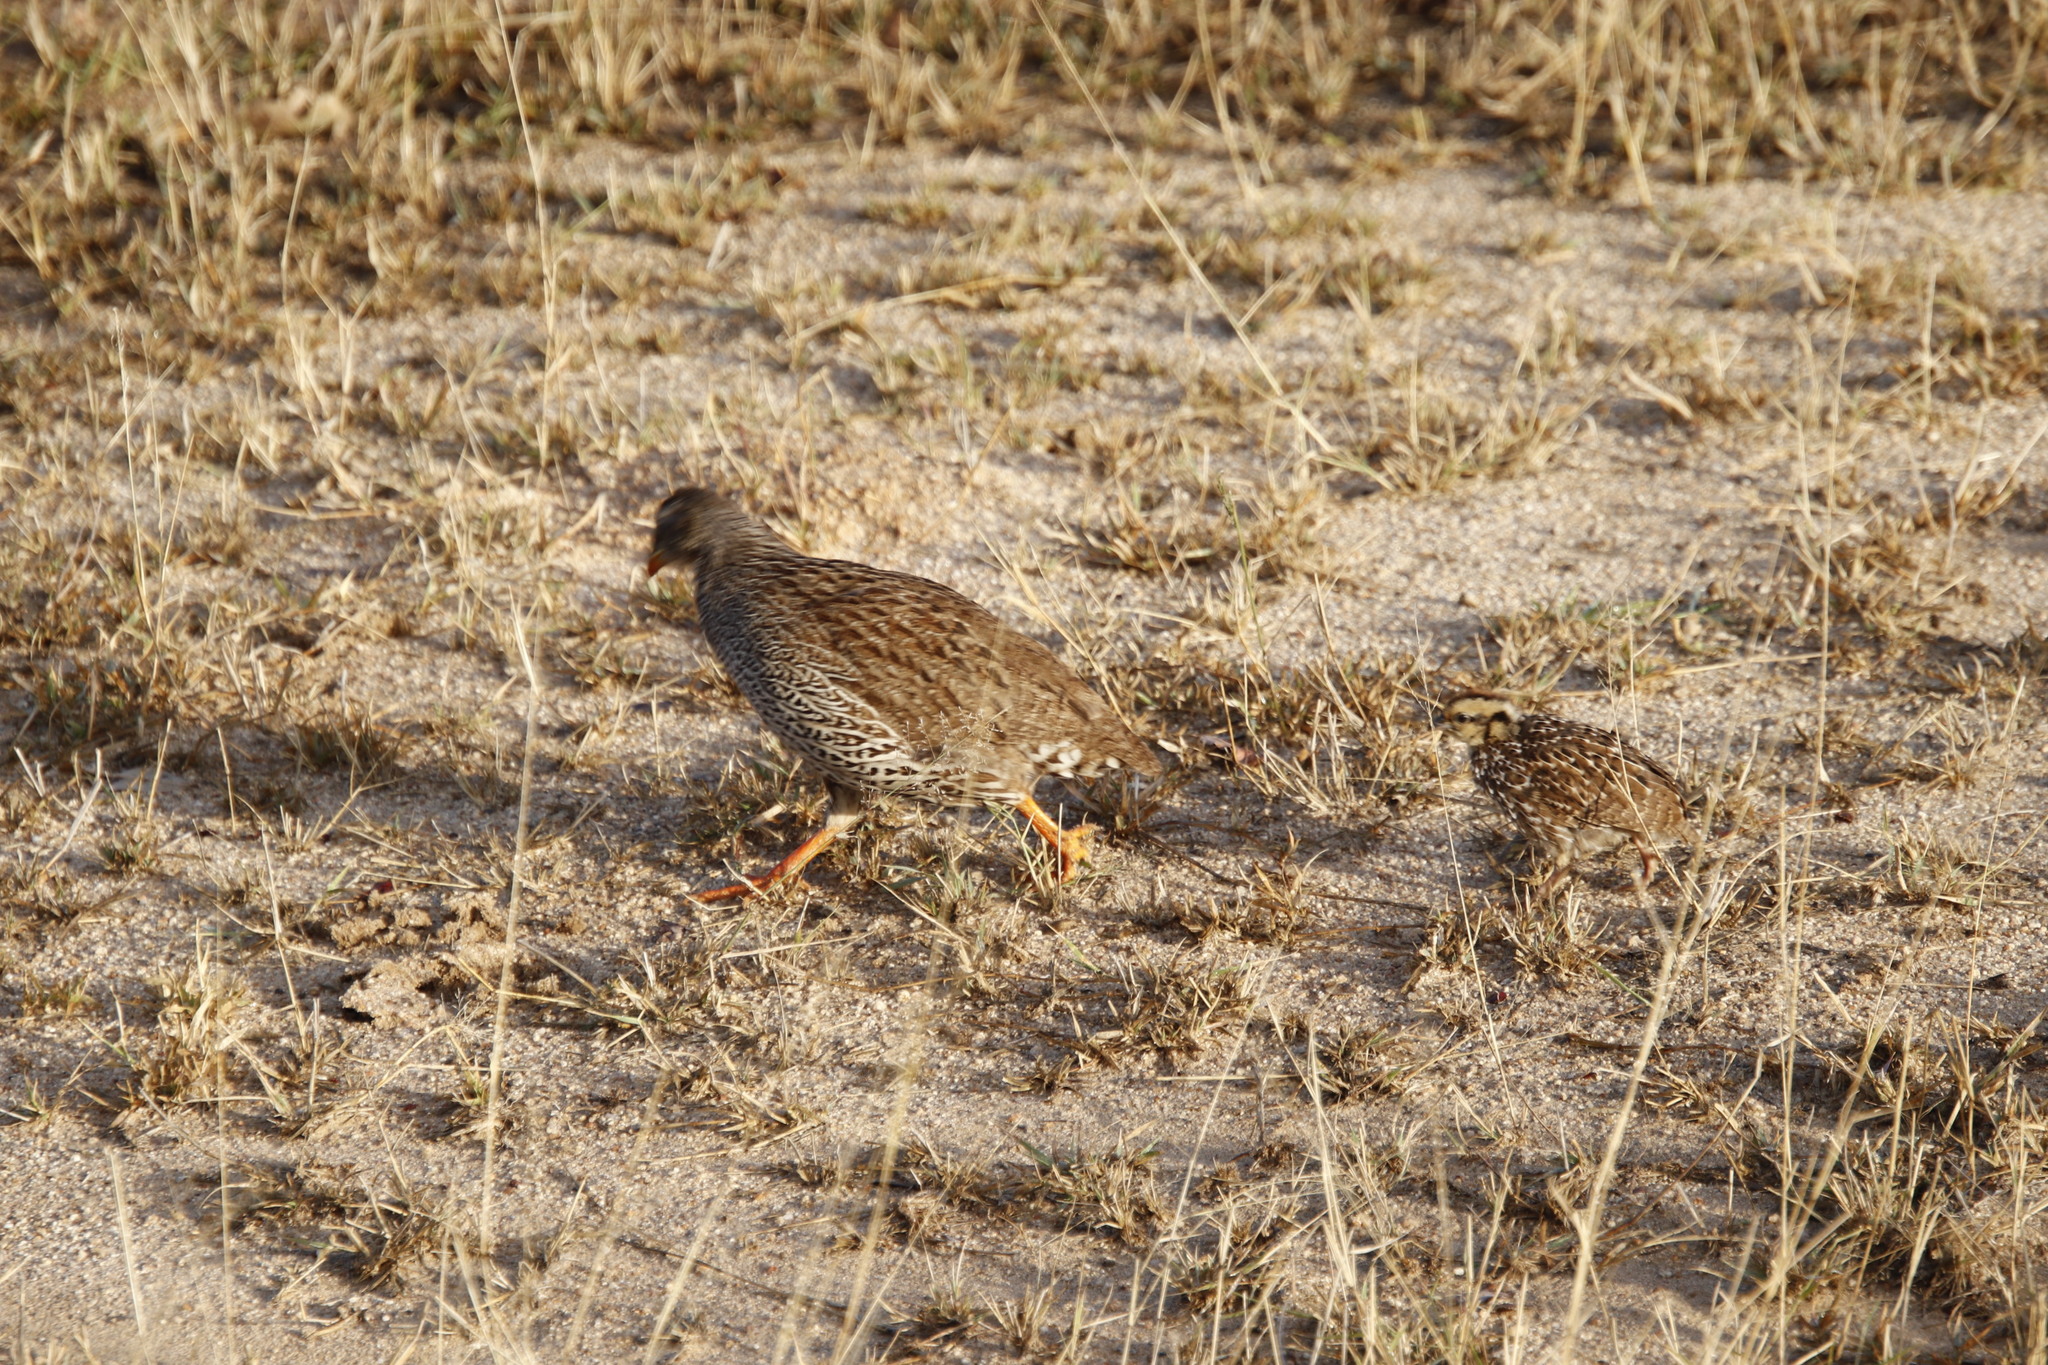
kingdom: Animalia
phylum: Chordata
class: Aves
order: Galliformes
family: Phasianidae
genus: Pternistis
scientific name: Pternistis natalensis
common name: Natal spurfowl
